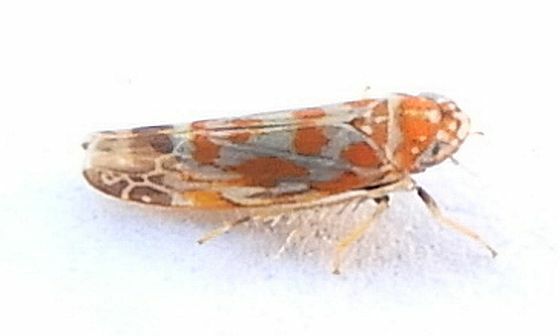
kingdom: Animalia
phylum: Arthropoda
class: Insecta
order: Hemiptera
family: Cicadellidae
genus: Zyginama
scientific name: Zyginama rossi
